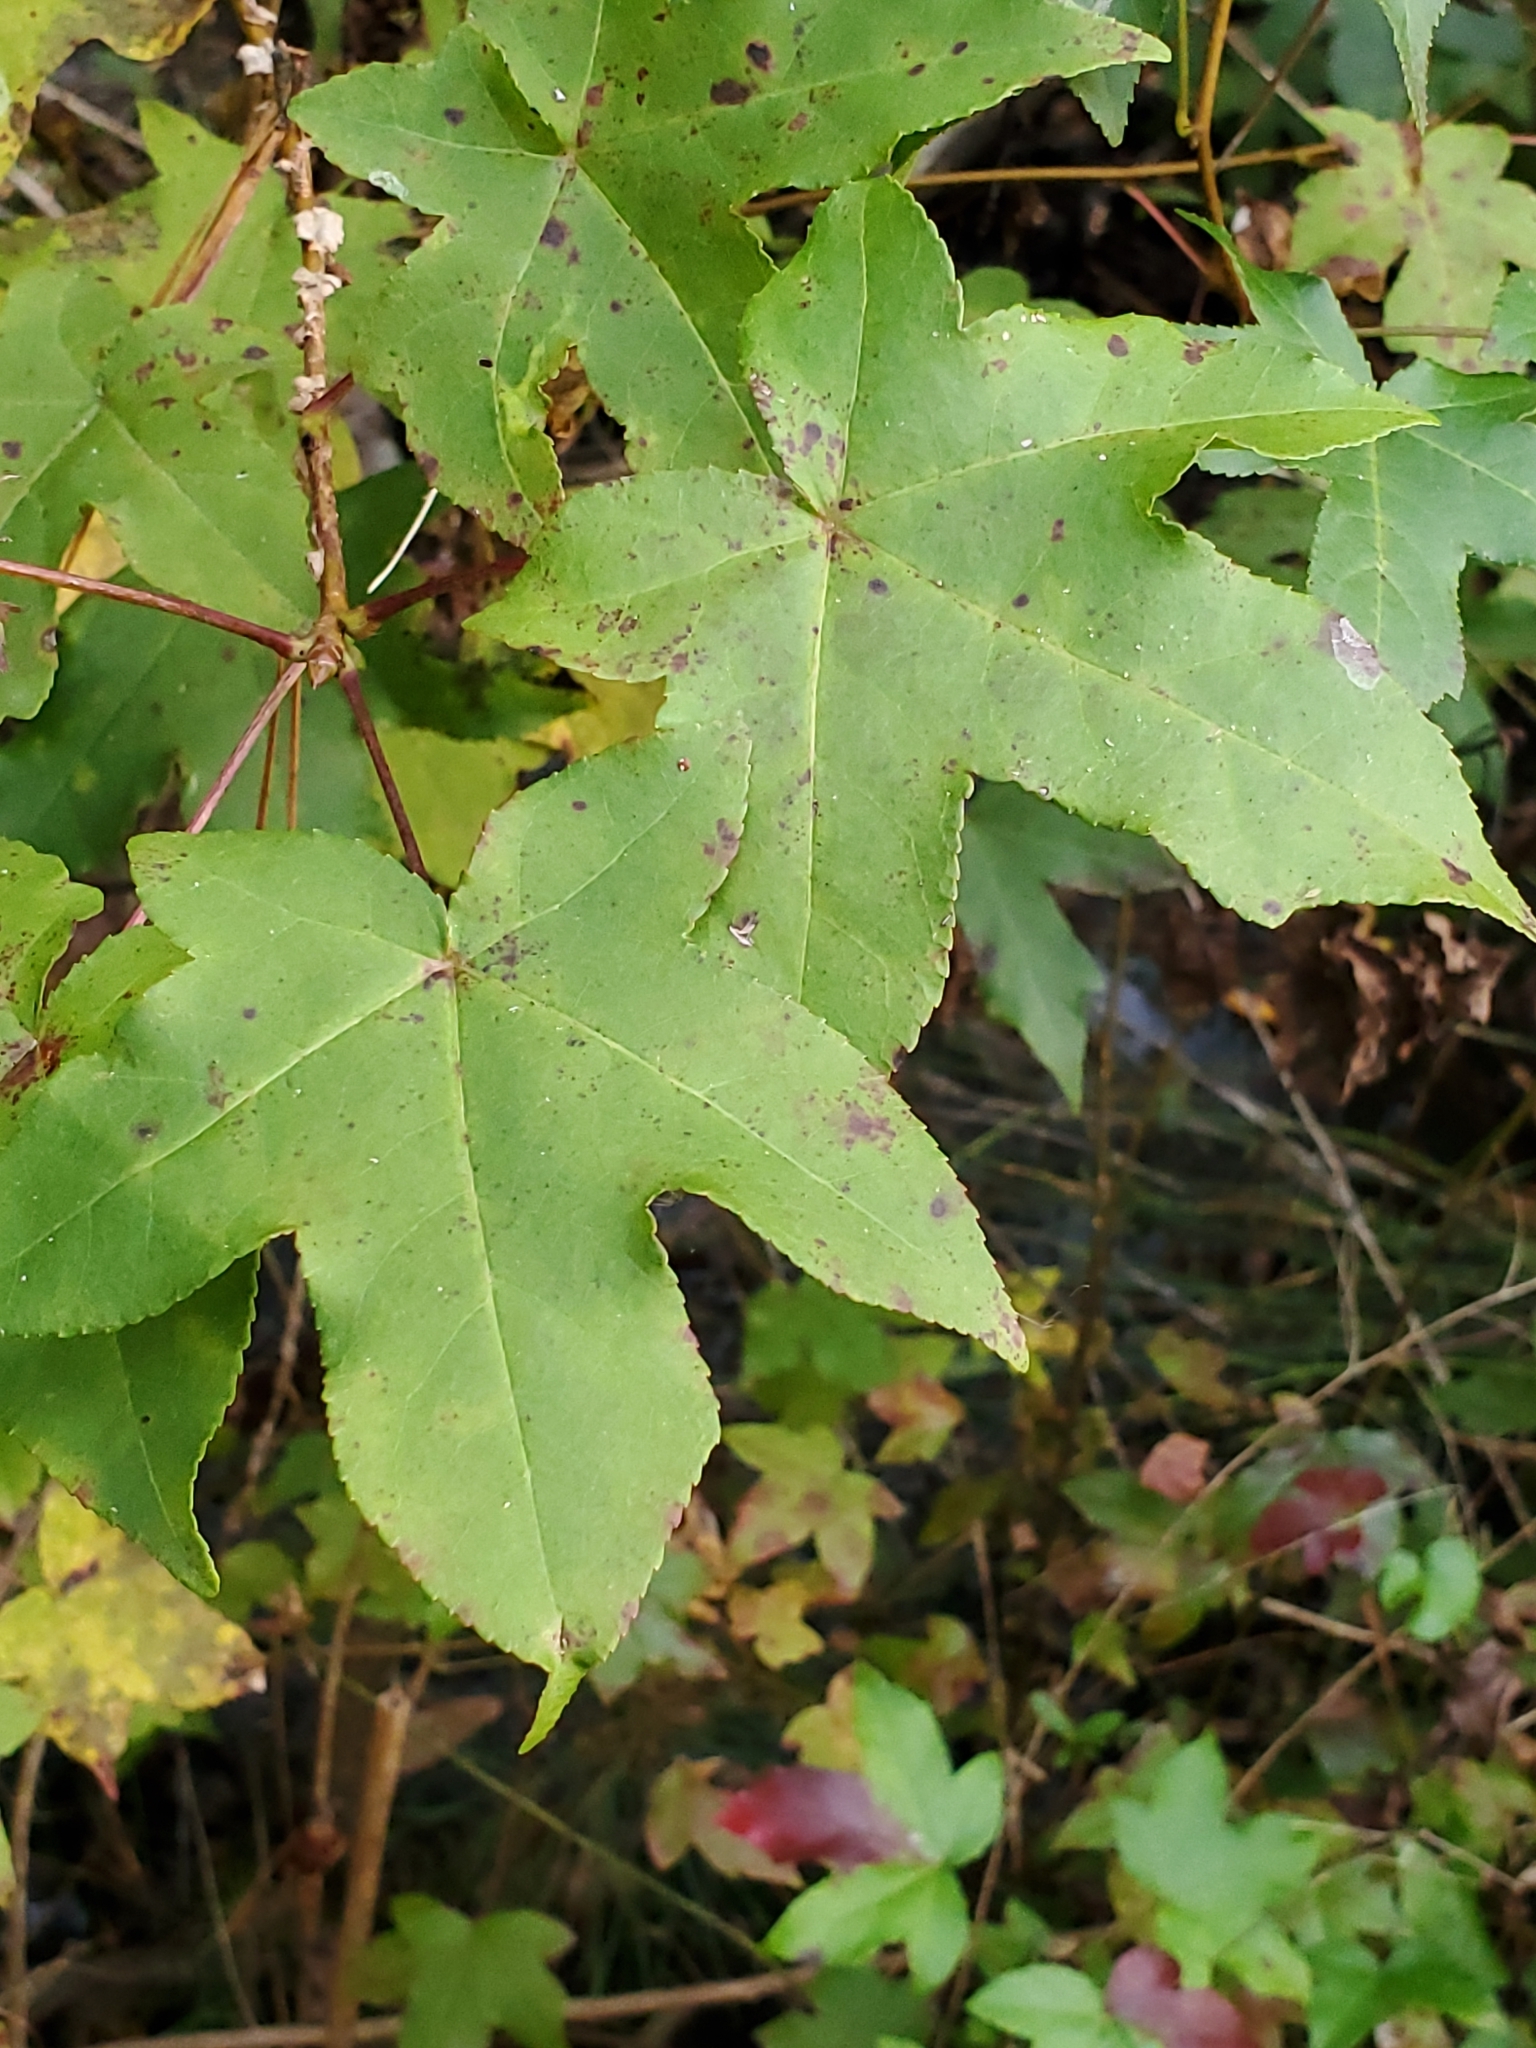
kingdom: Plantae
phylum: Tracheophyta
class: Magnoliopsida
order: Saxifragales
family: Altingiaceae
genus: Liquidambar
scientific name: Liquidambar styraciflua
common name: Sweet gum
